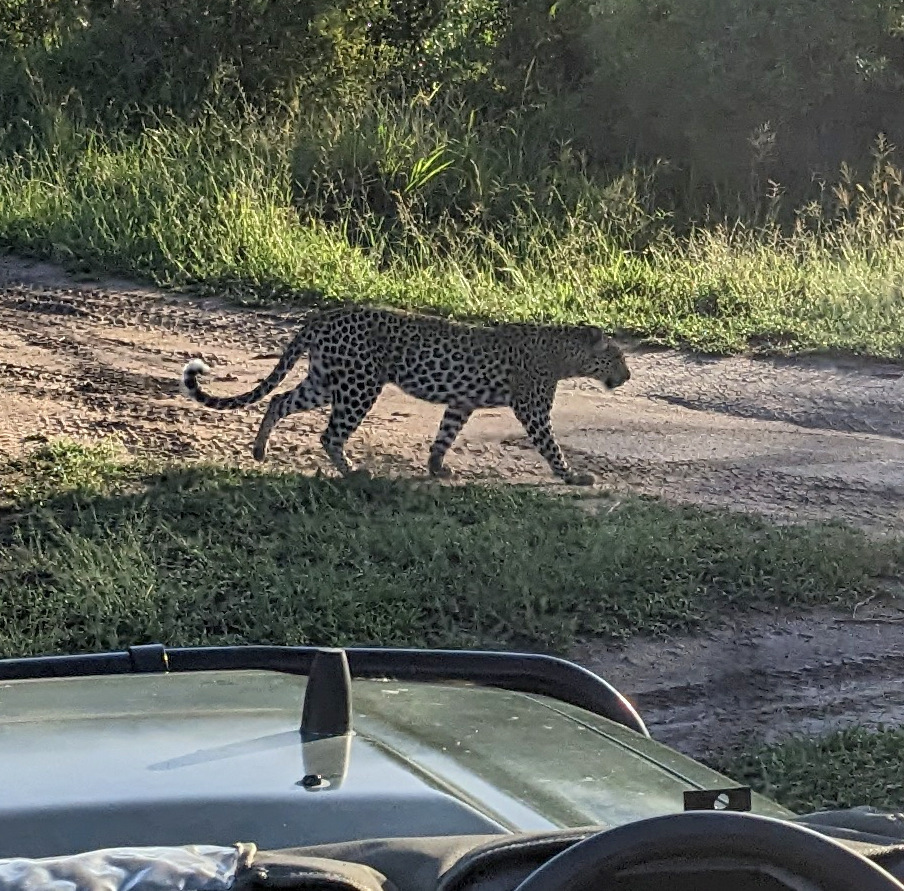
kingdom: Animalia
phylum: Chordata
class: Mammalia
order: Carnivora
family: Felidae
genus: Panthera
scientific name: Panthera pardus
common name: Leopard
